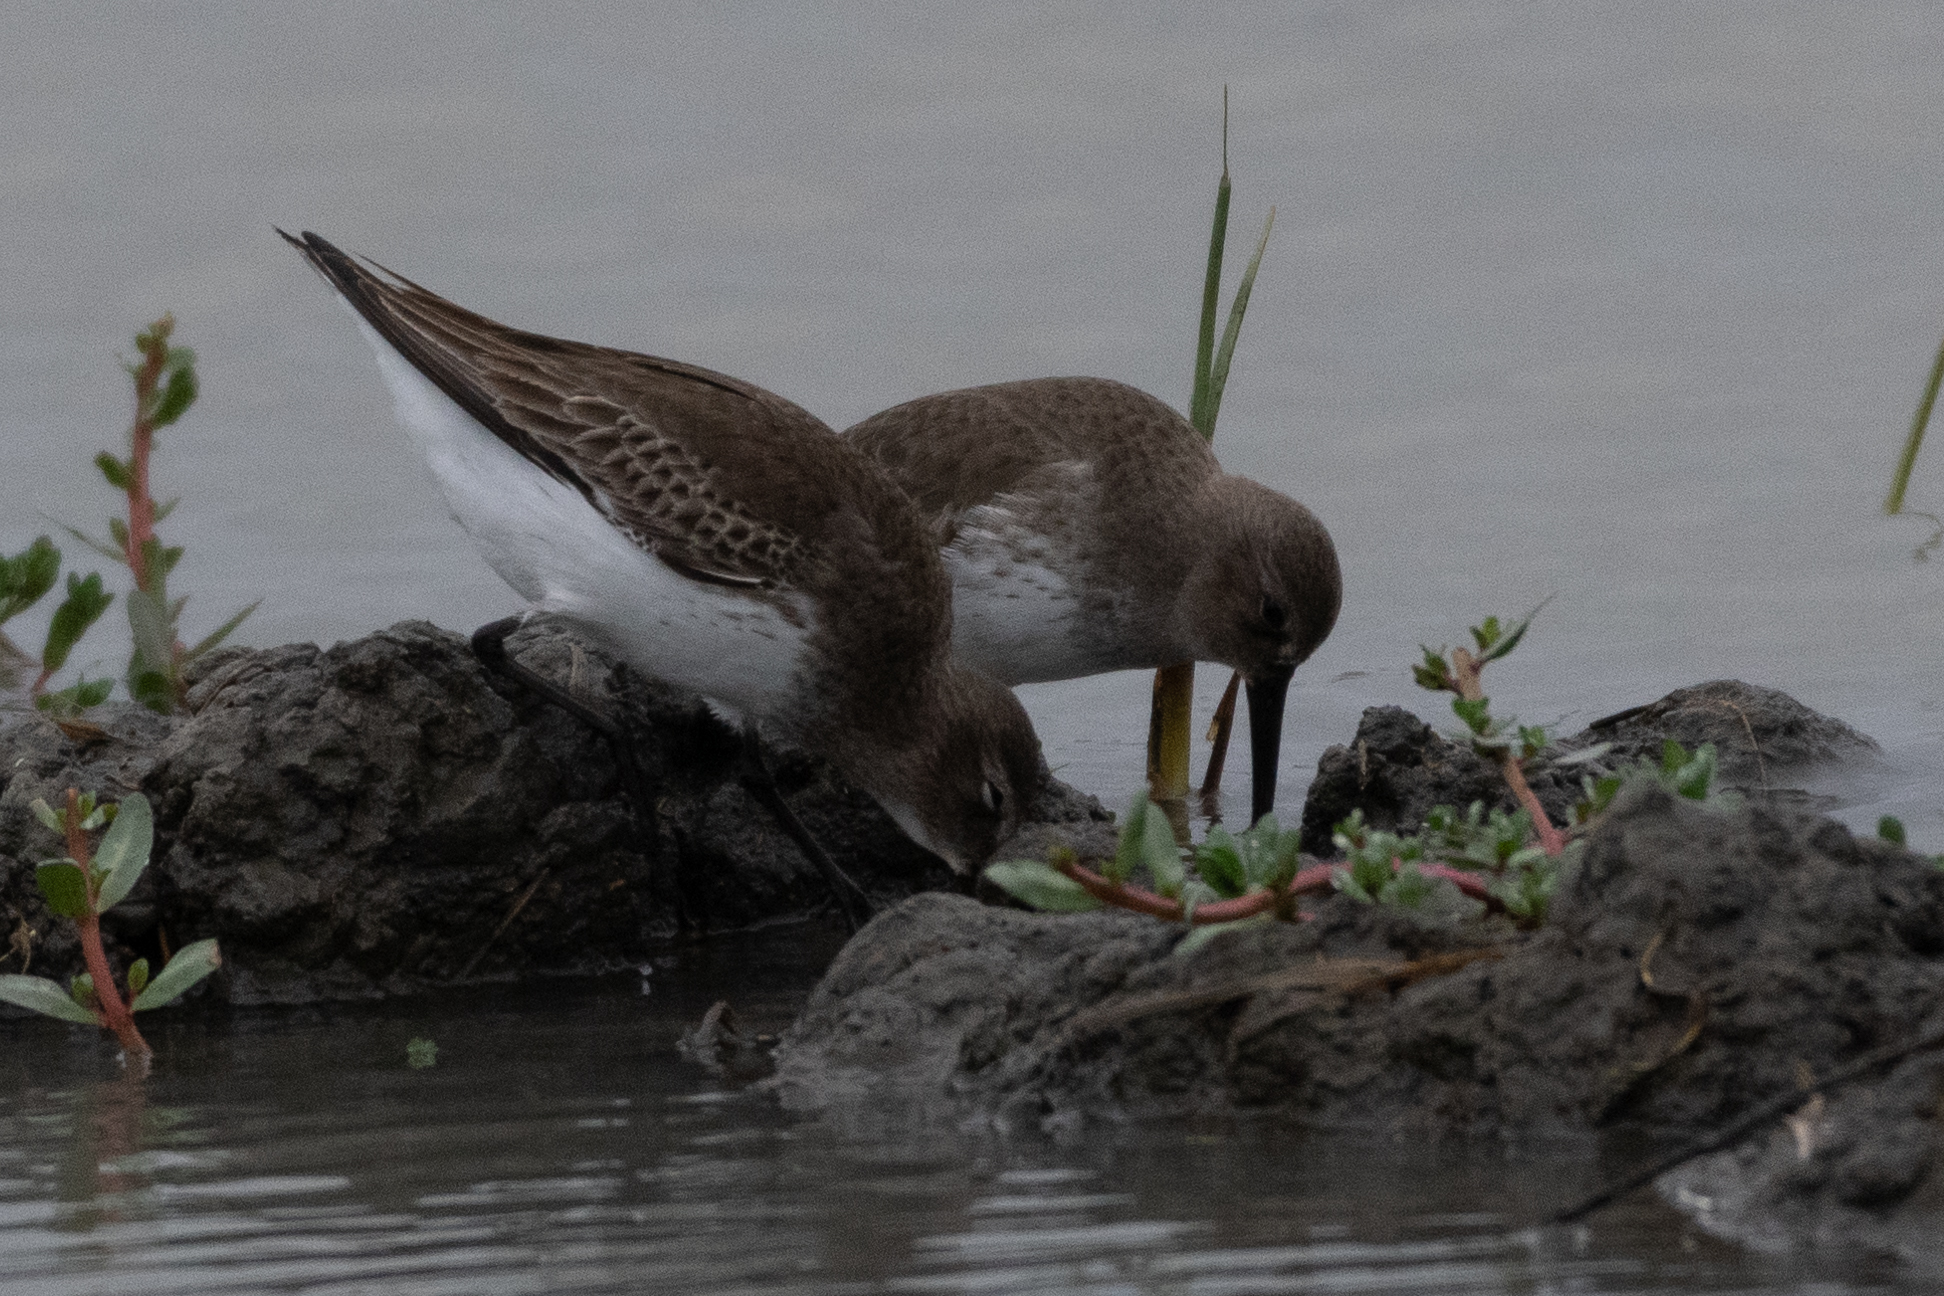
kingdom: Animalia
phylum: Chordata
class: Aves
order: Charadriiformes
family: Scolopacidae
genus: Calidris
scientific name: Calidris alpina
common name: Dunlin
